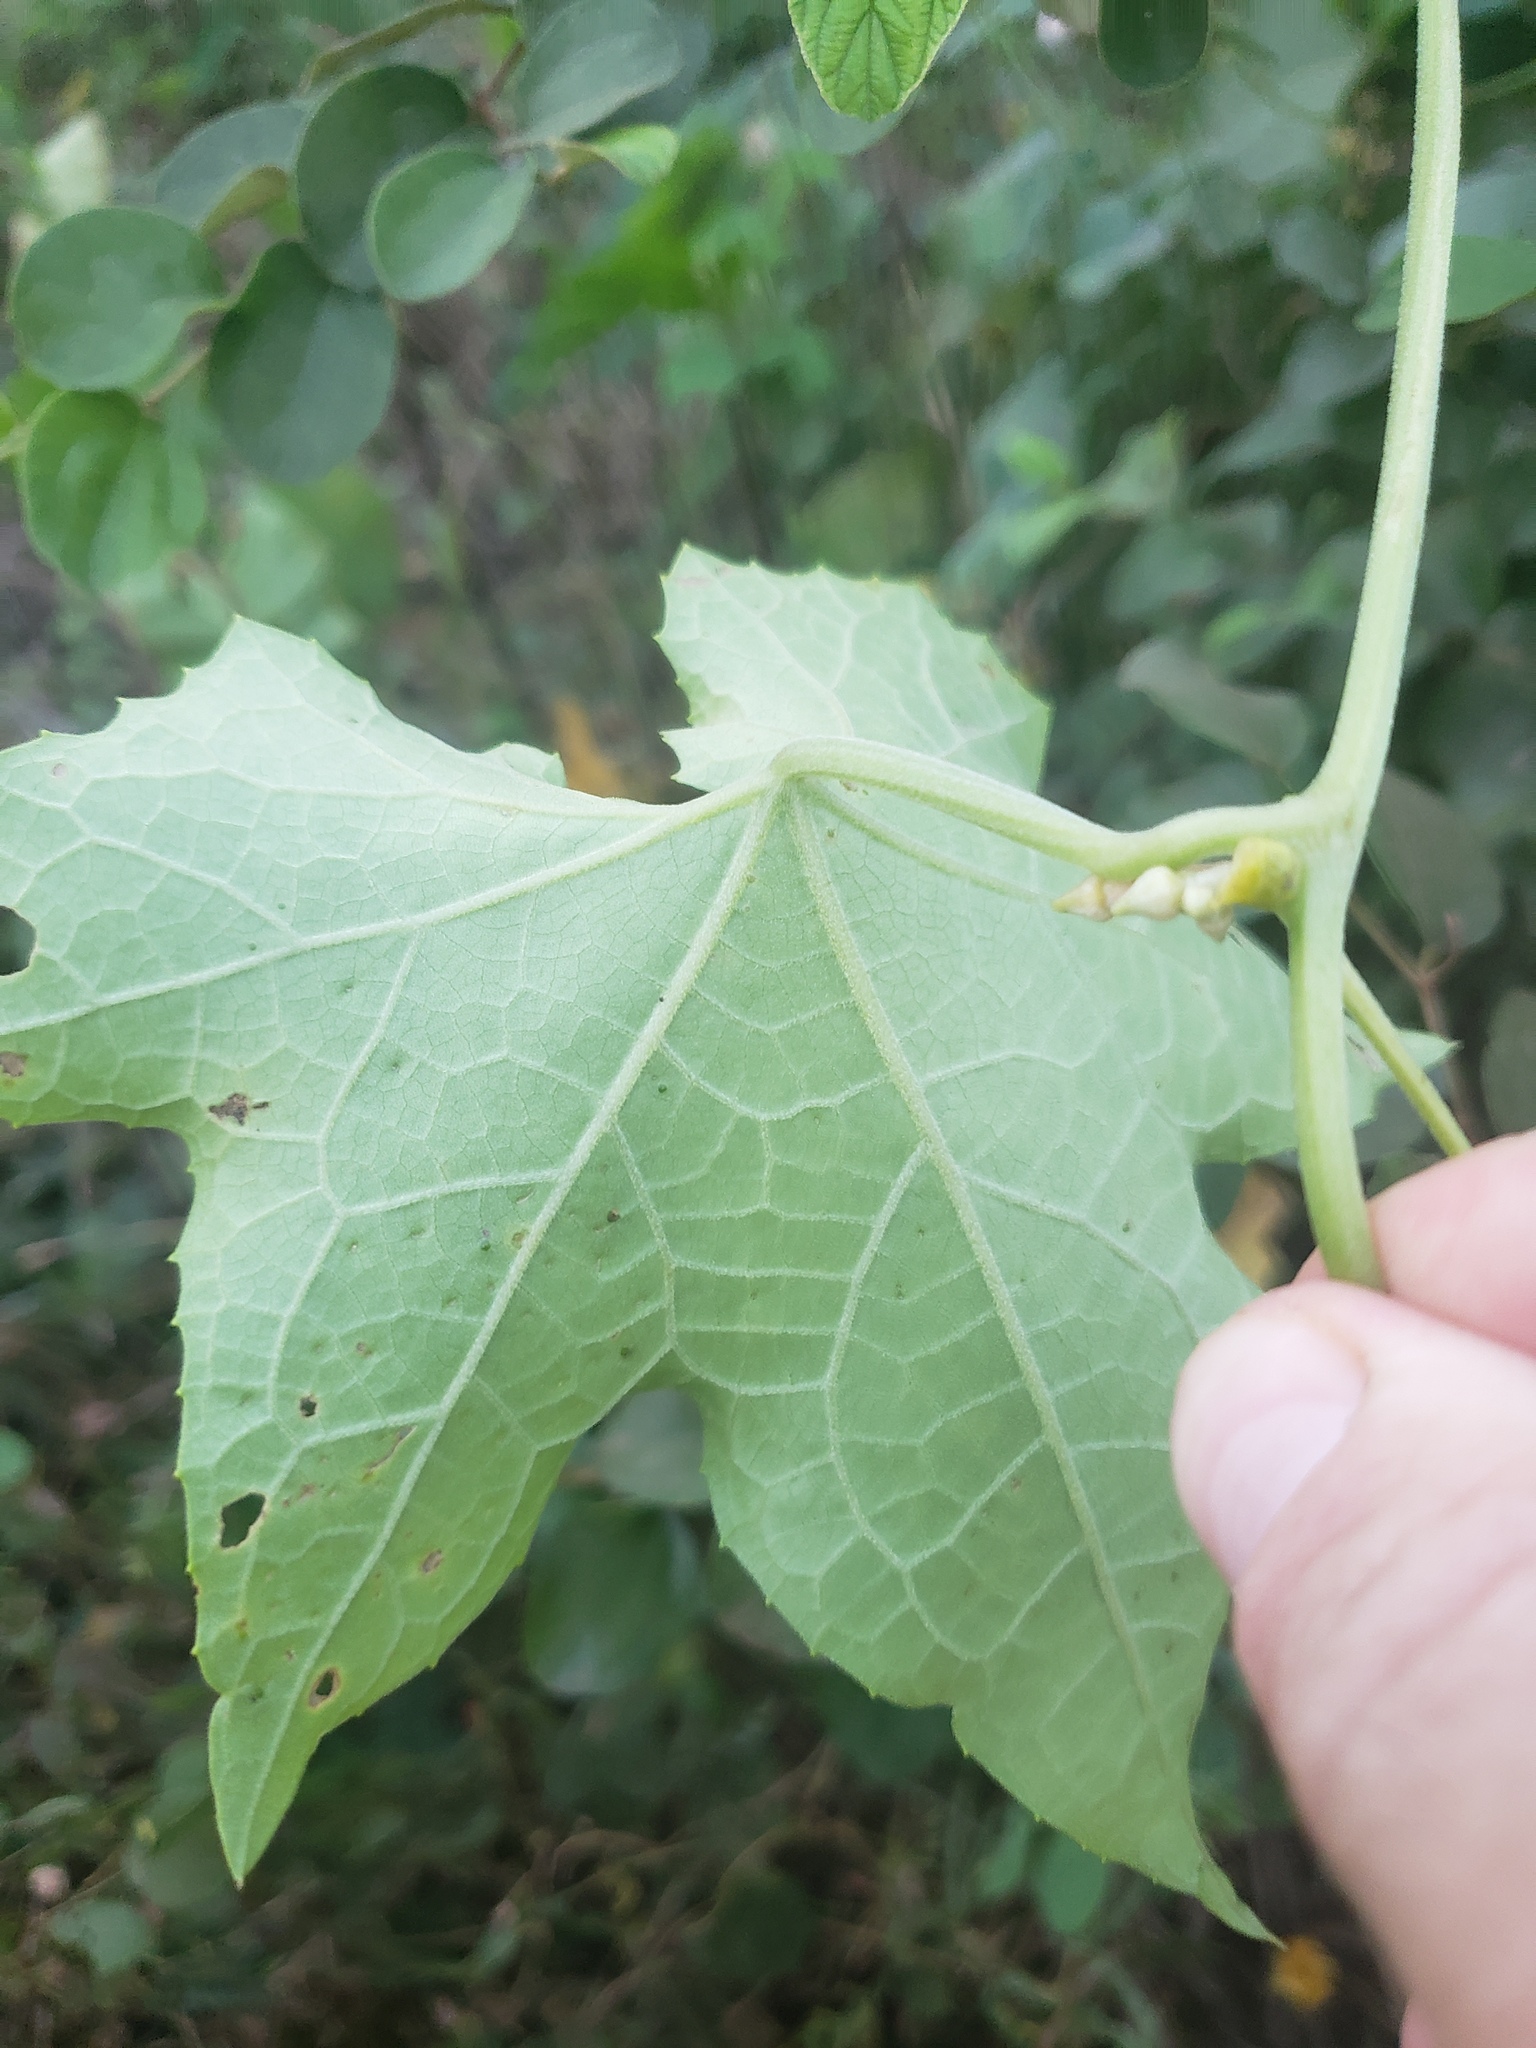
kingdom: Plantae
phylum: Tracheophyta
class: Magnoliopsida
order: Cucurbitales
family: Cucurbitaceae
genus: Luffa
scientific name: Luffa aegyptiaca
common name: Sponge gourd
